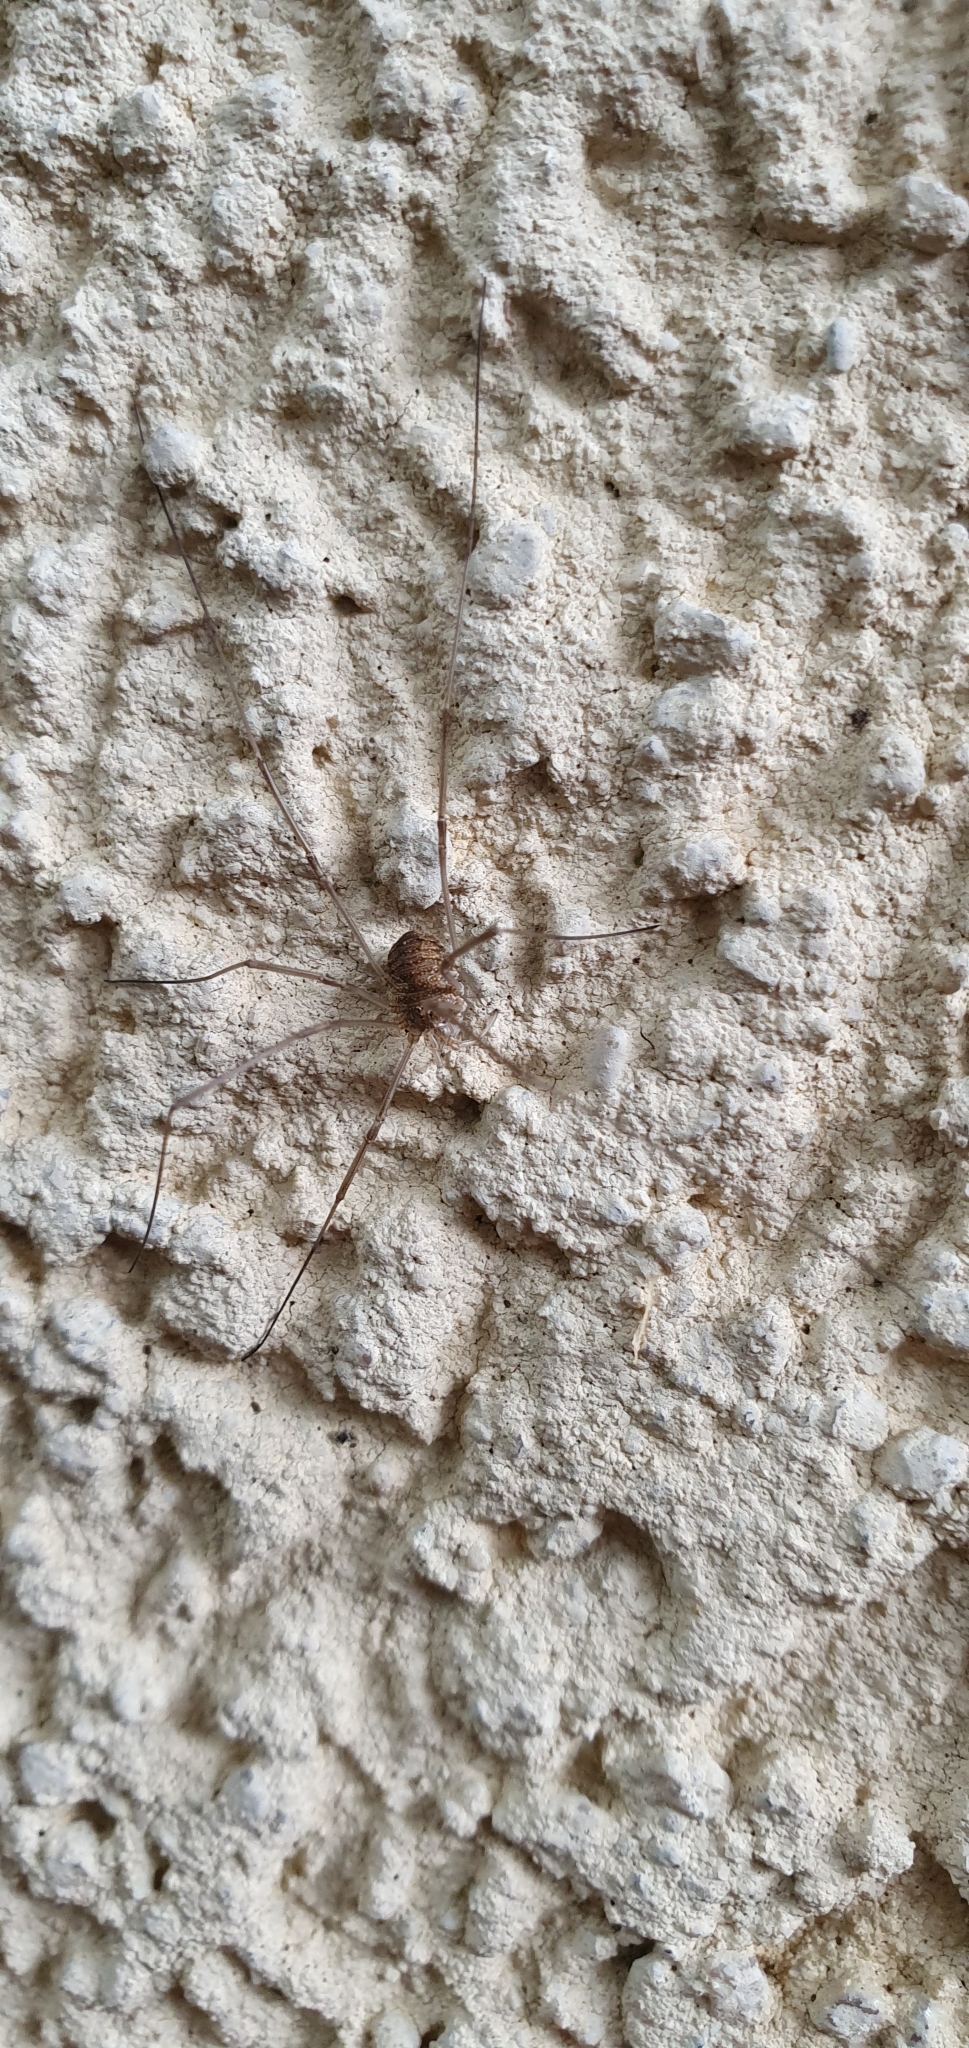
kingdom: Animalia
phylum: Arthropoda
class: Arachnida
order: Opiliones
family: Phalangiidae
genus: Phalangium
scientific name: Phalangium opilio
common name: Daddy longleg
